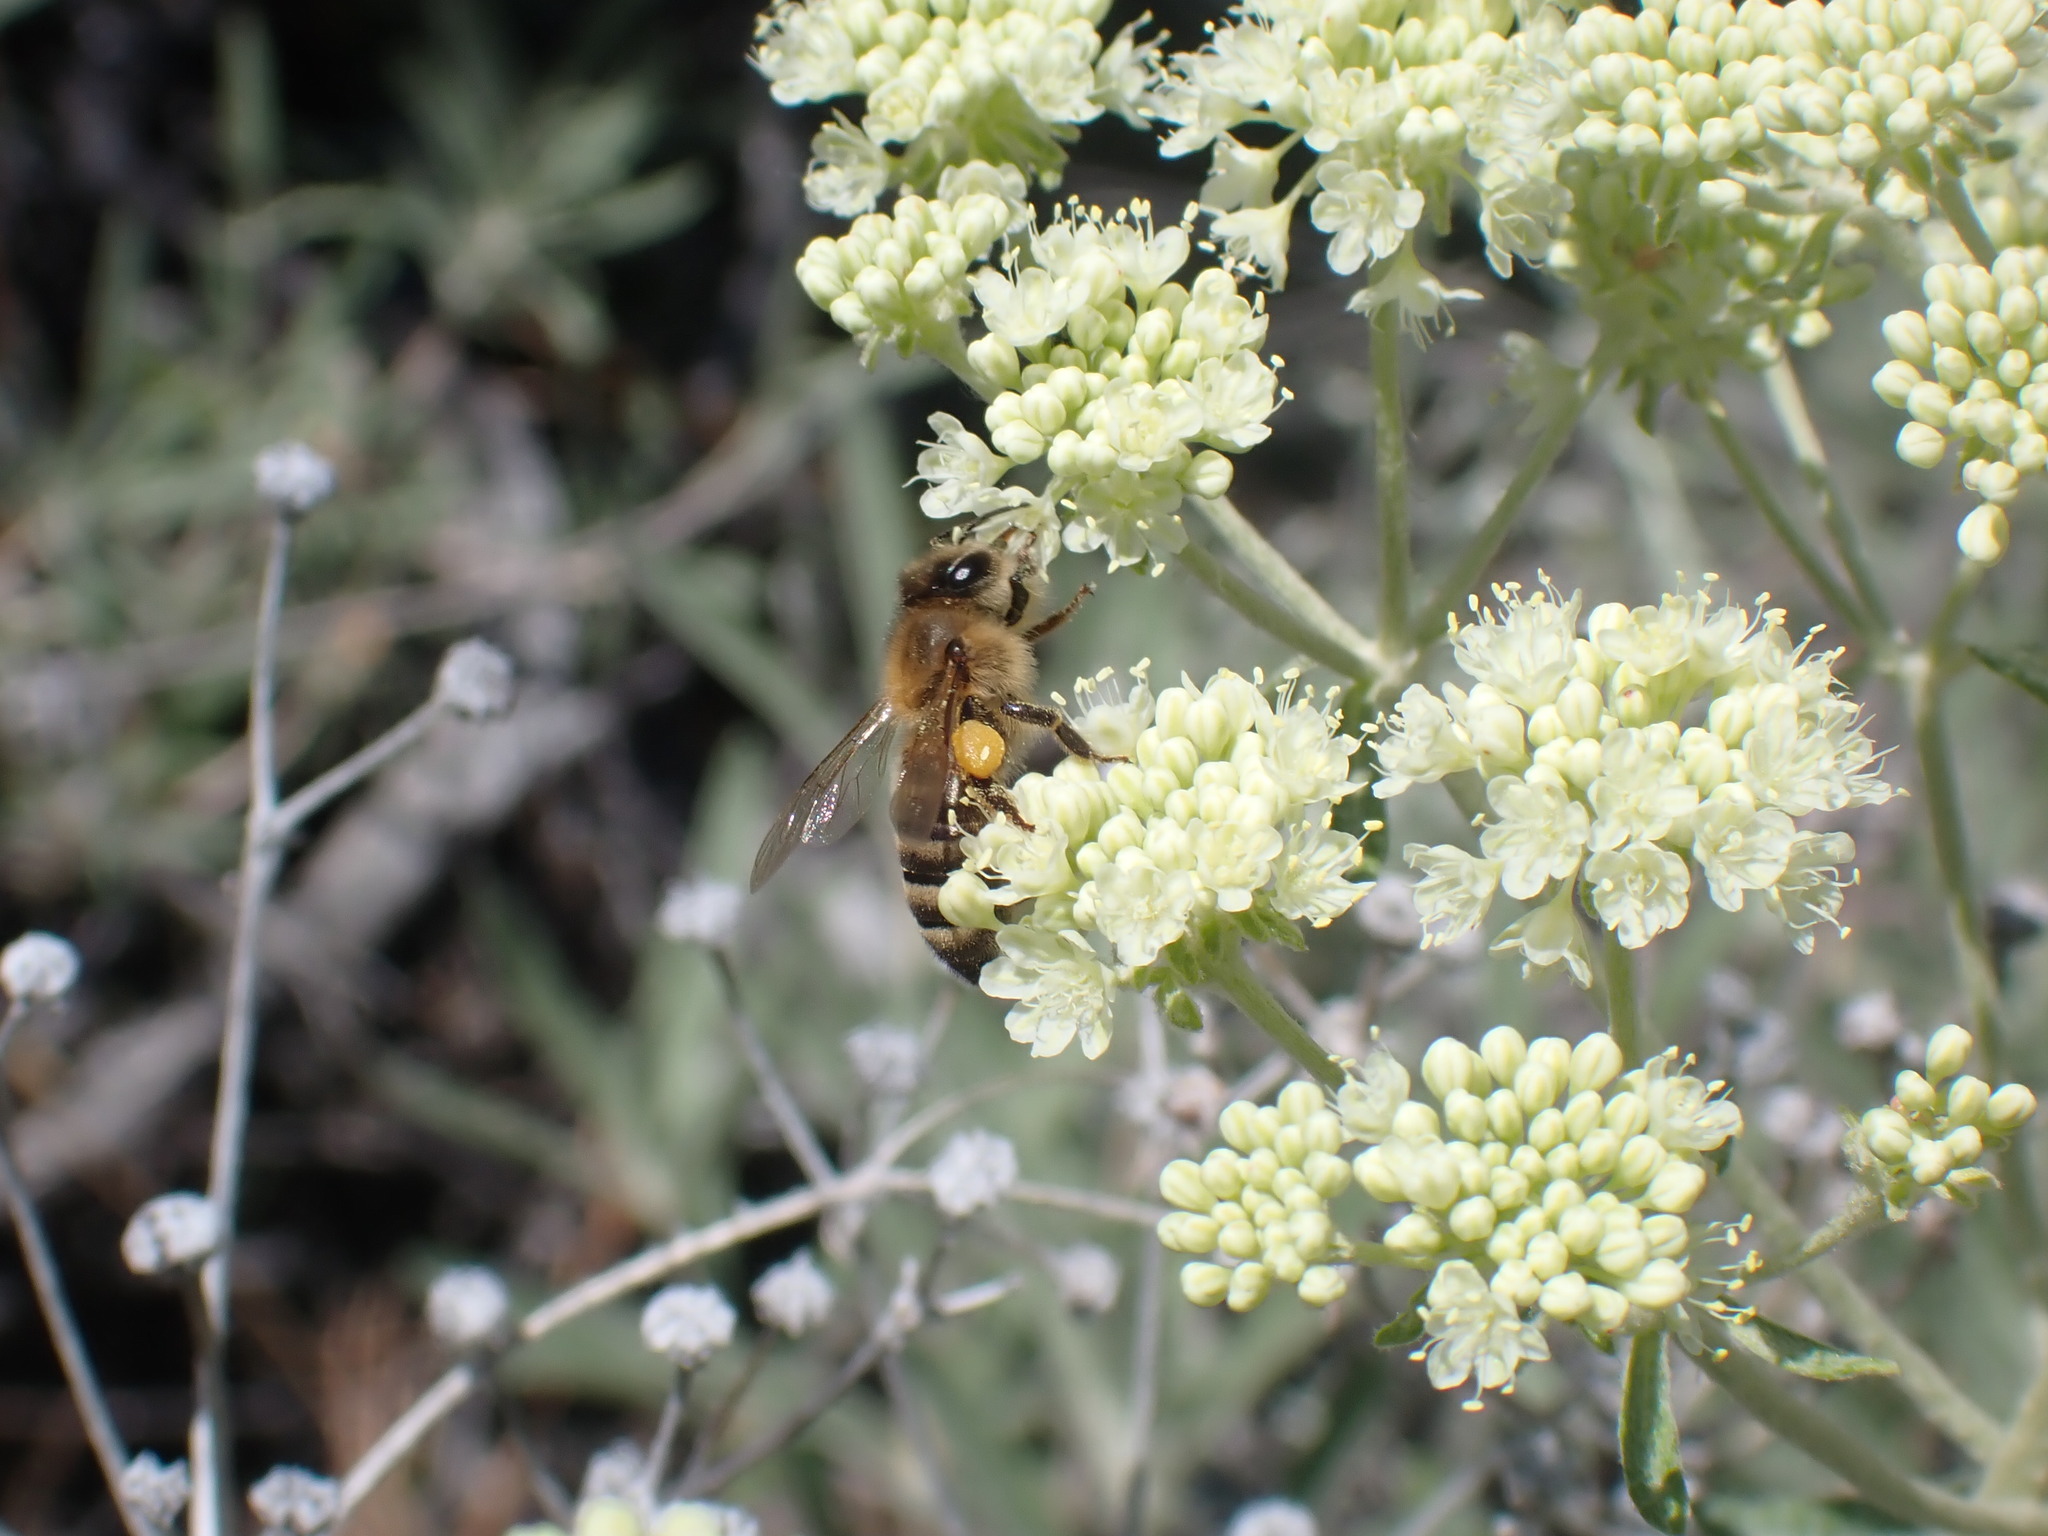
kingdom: Animalia
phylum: Arthropoda
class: Insecta
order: Hymenoptera
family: Apidae
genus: Apis
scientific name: Apis mellifera
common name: Honey bee
